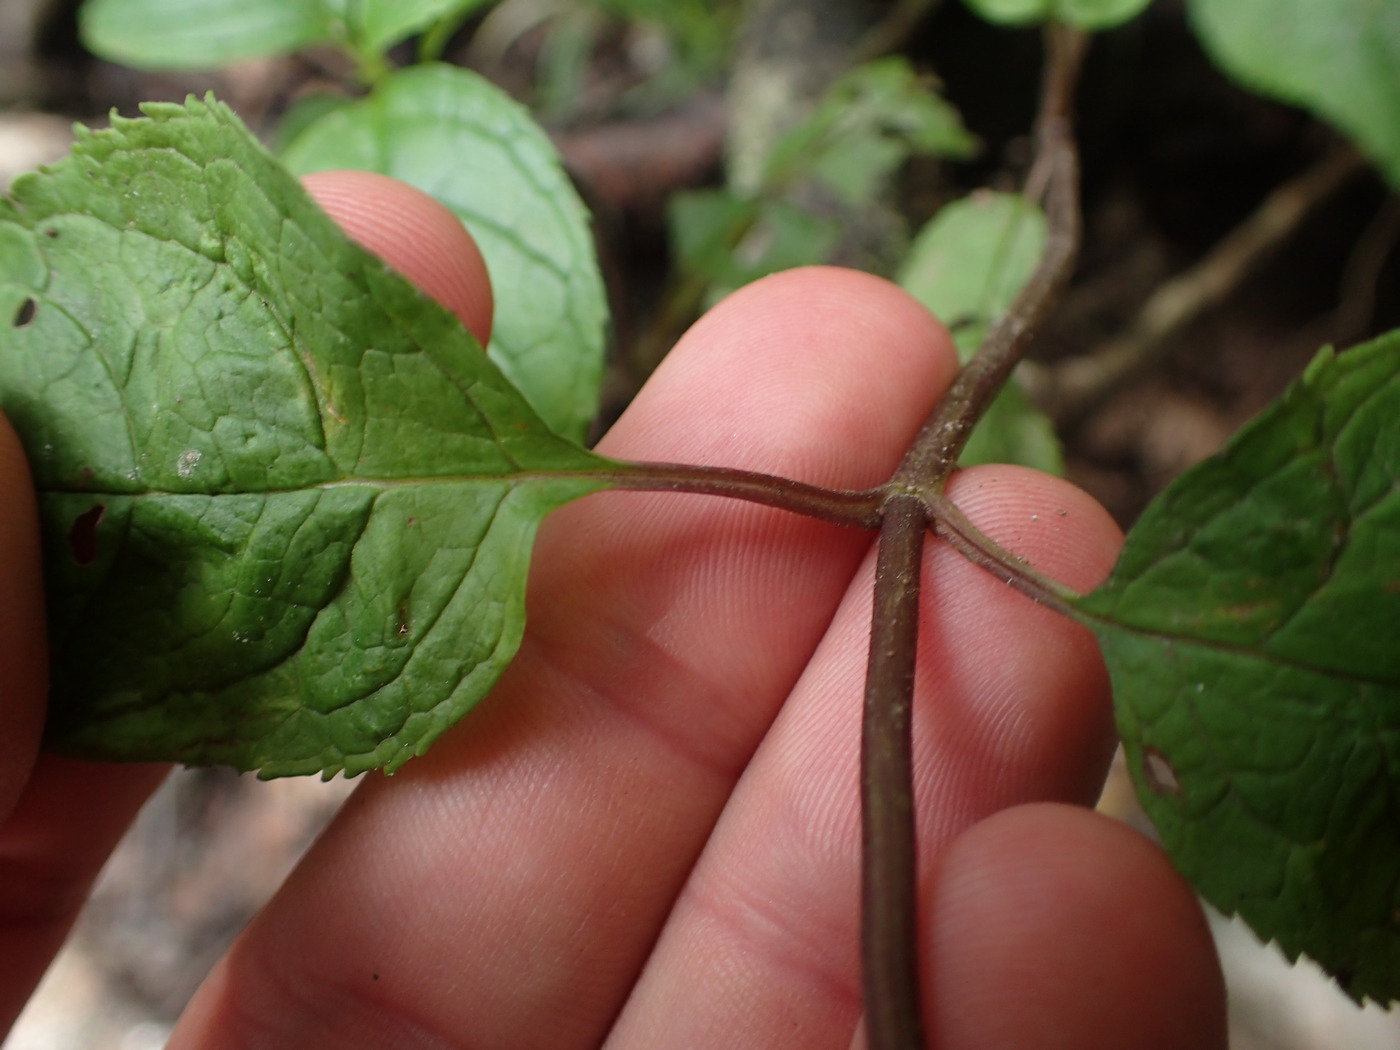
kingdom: Plantae
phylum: Tracheophyta
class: Magnoliopsida
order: Lamiales
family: Plantaginaceae
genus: Chelone
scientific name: Chelone lyonii
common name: Pink turtlehead
